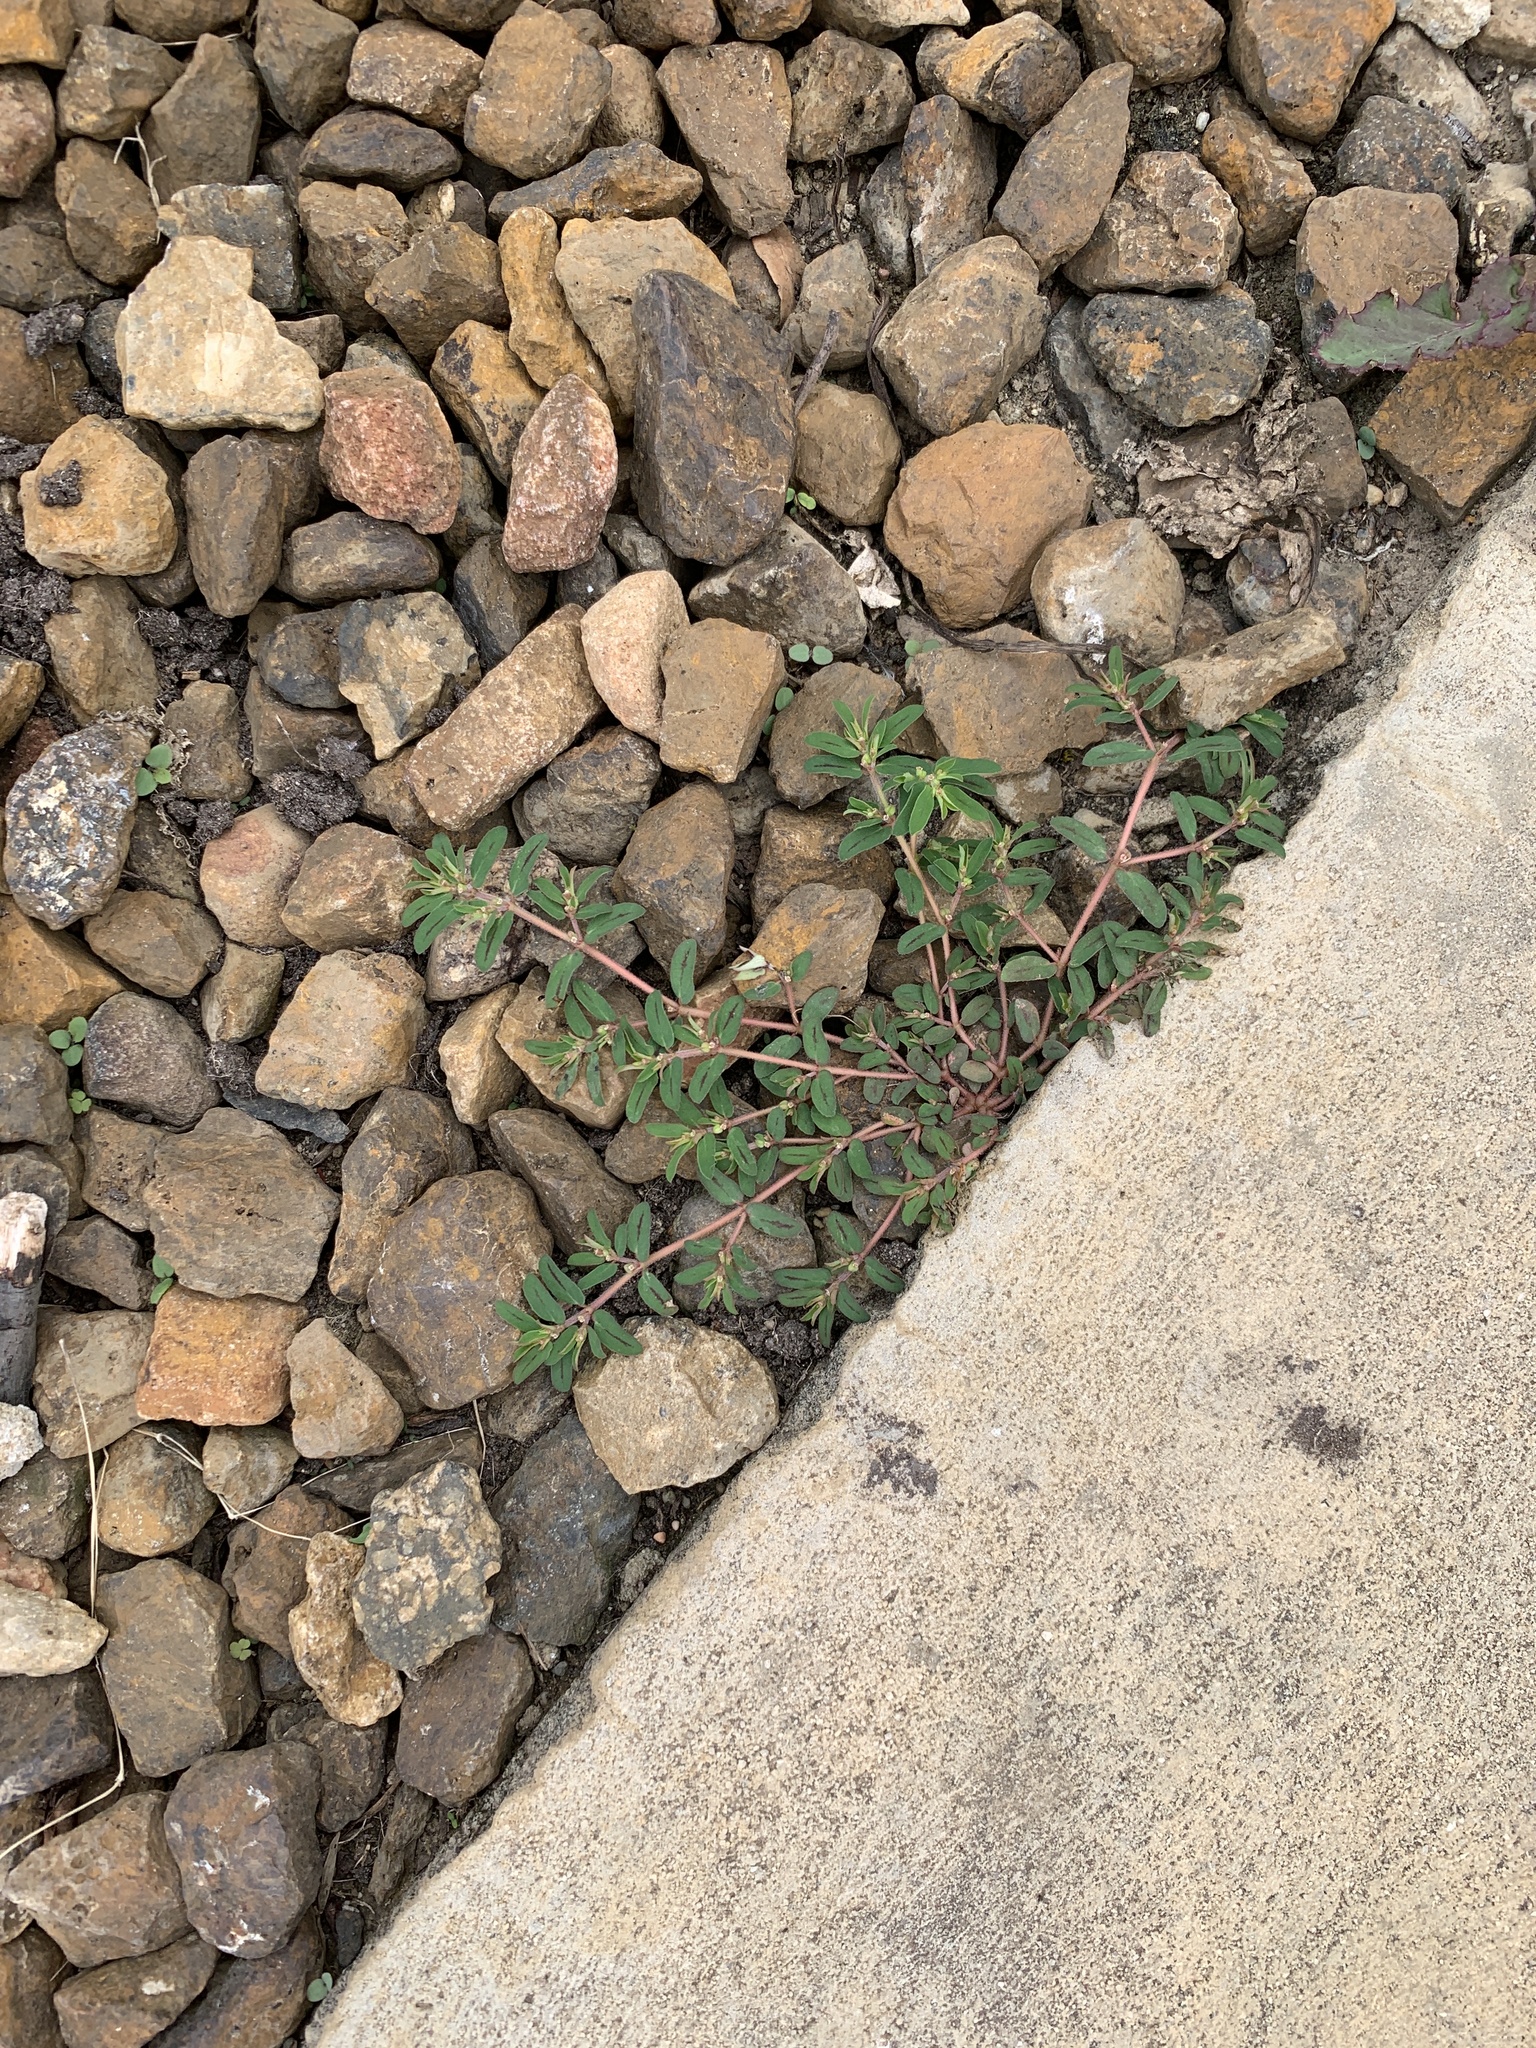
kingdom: Plantae
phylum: Tracheophyta
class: Magnoliopsida
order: Malpighiales
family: Euphorbiaceae
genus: Euphorbia
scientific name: Euphorbia maculata
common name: Spotted spurge
